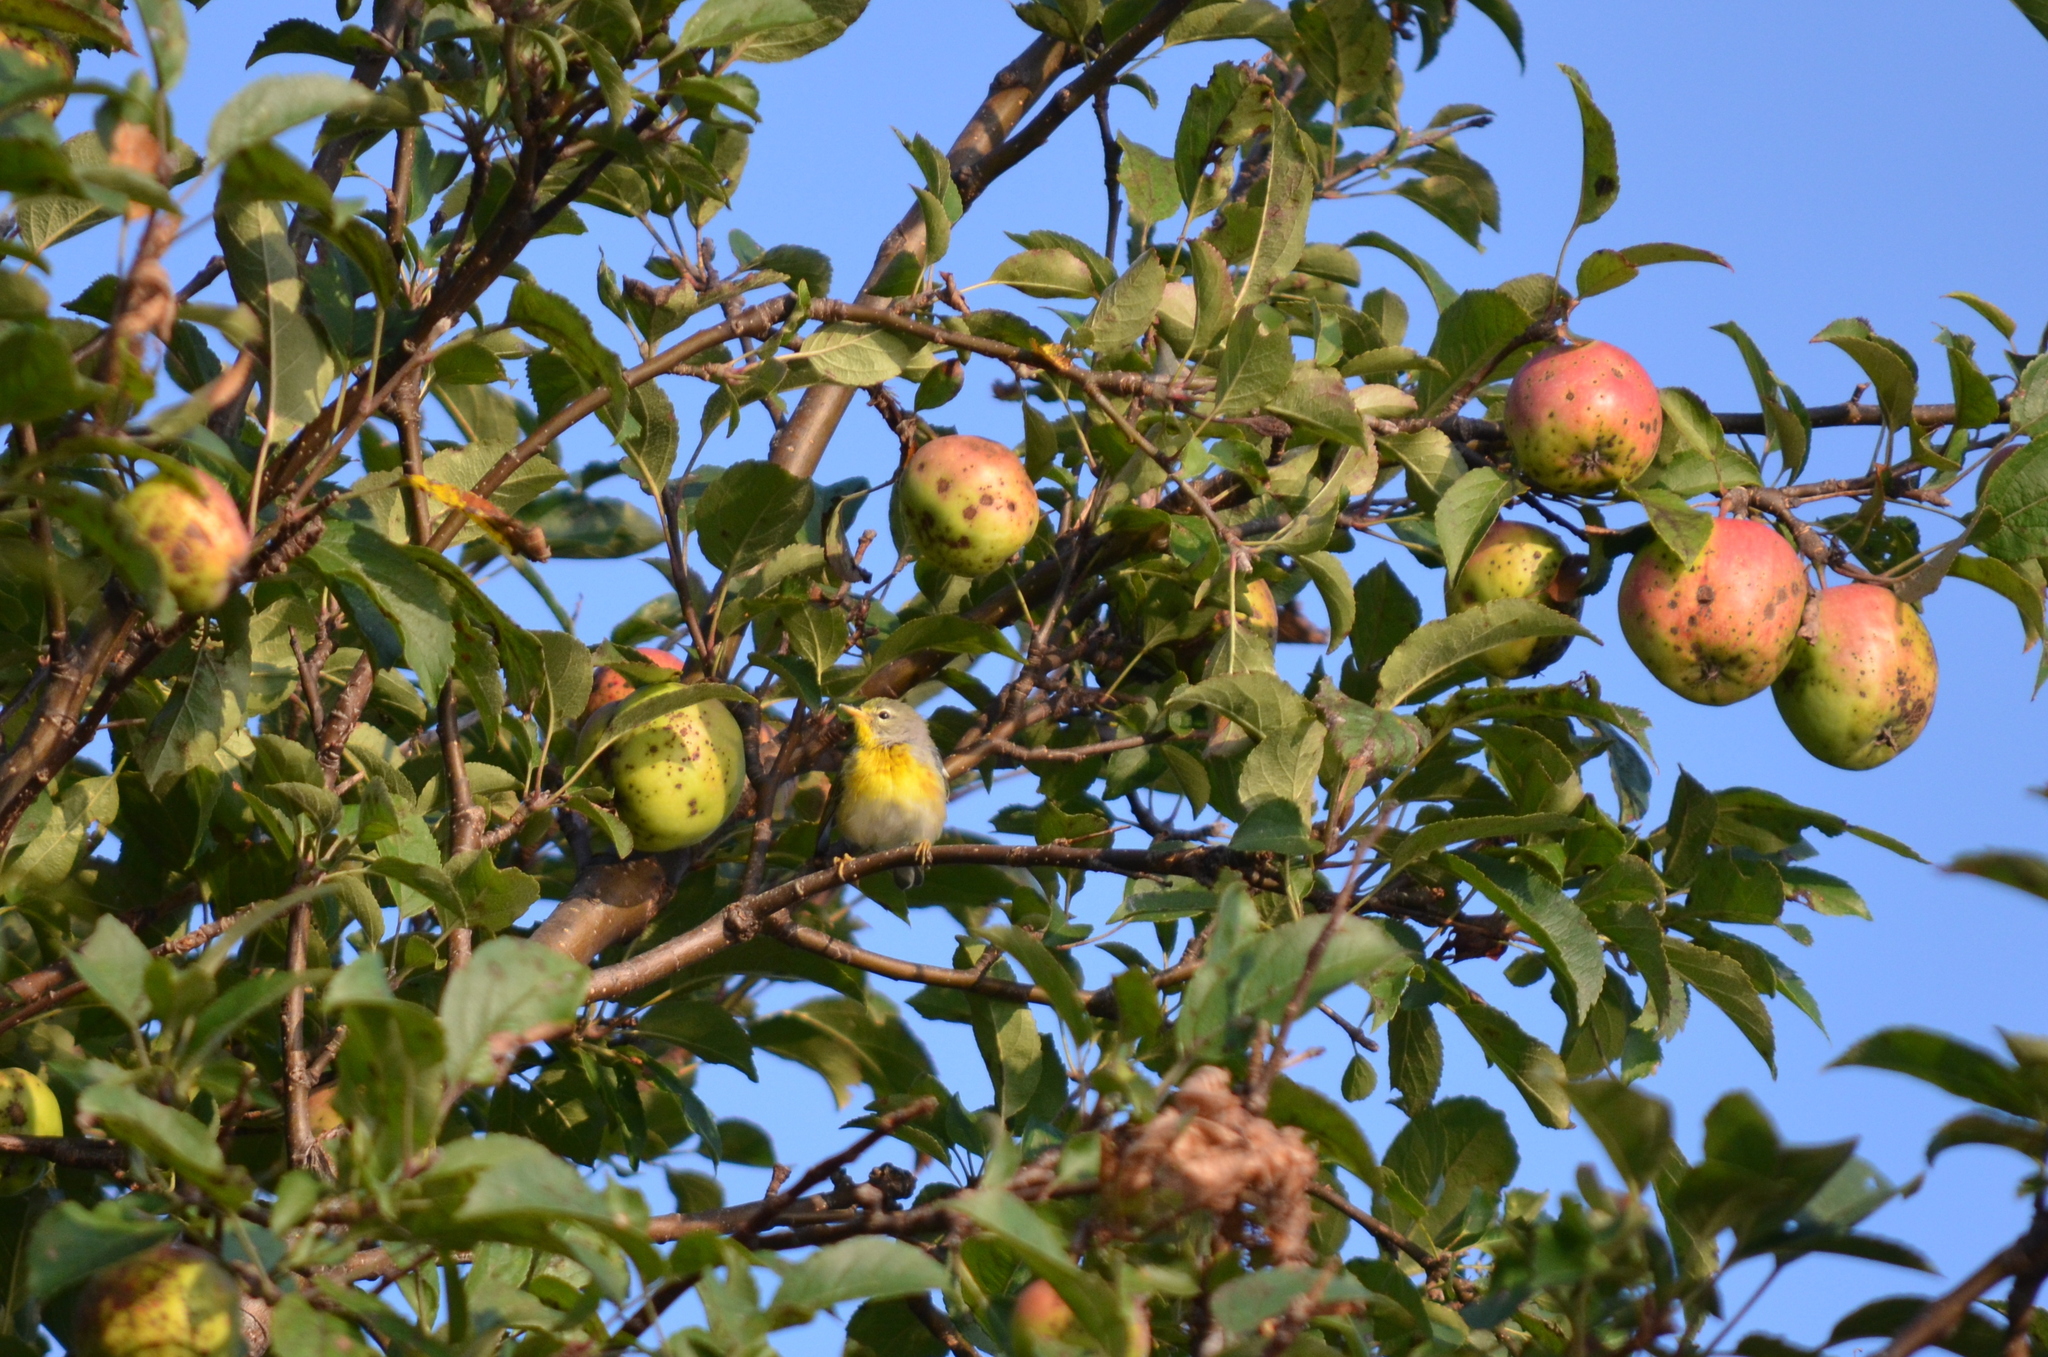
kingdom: Animalia
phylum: Chordata
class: Aves
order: Passeriformes
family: Parulidae
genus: Setophaga
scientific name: Setophaga americana
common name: Northern parula
